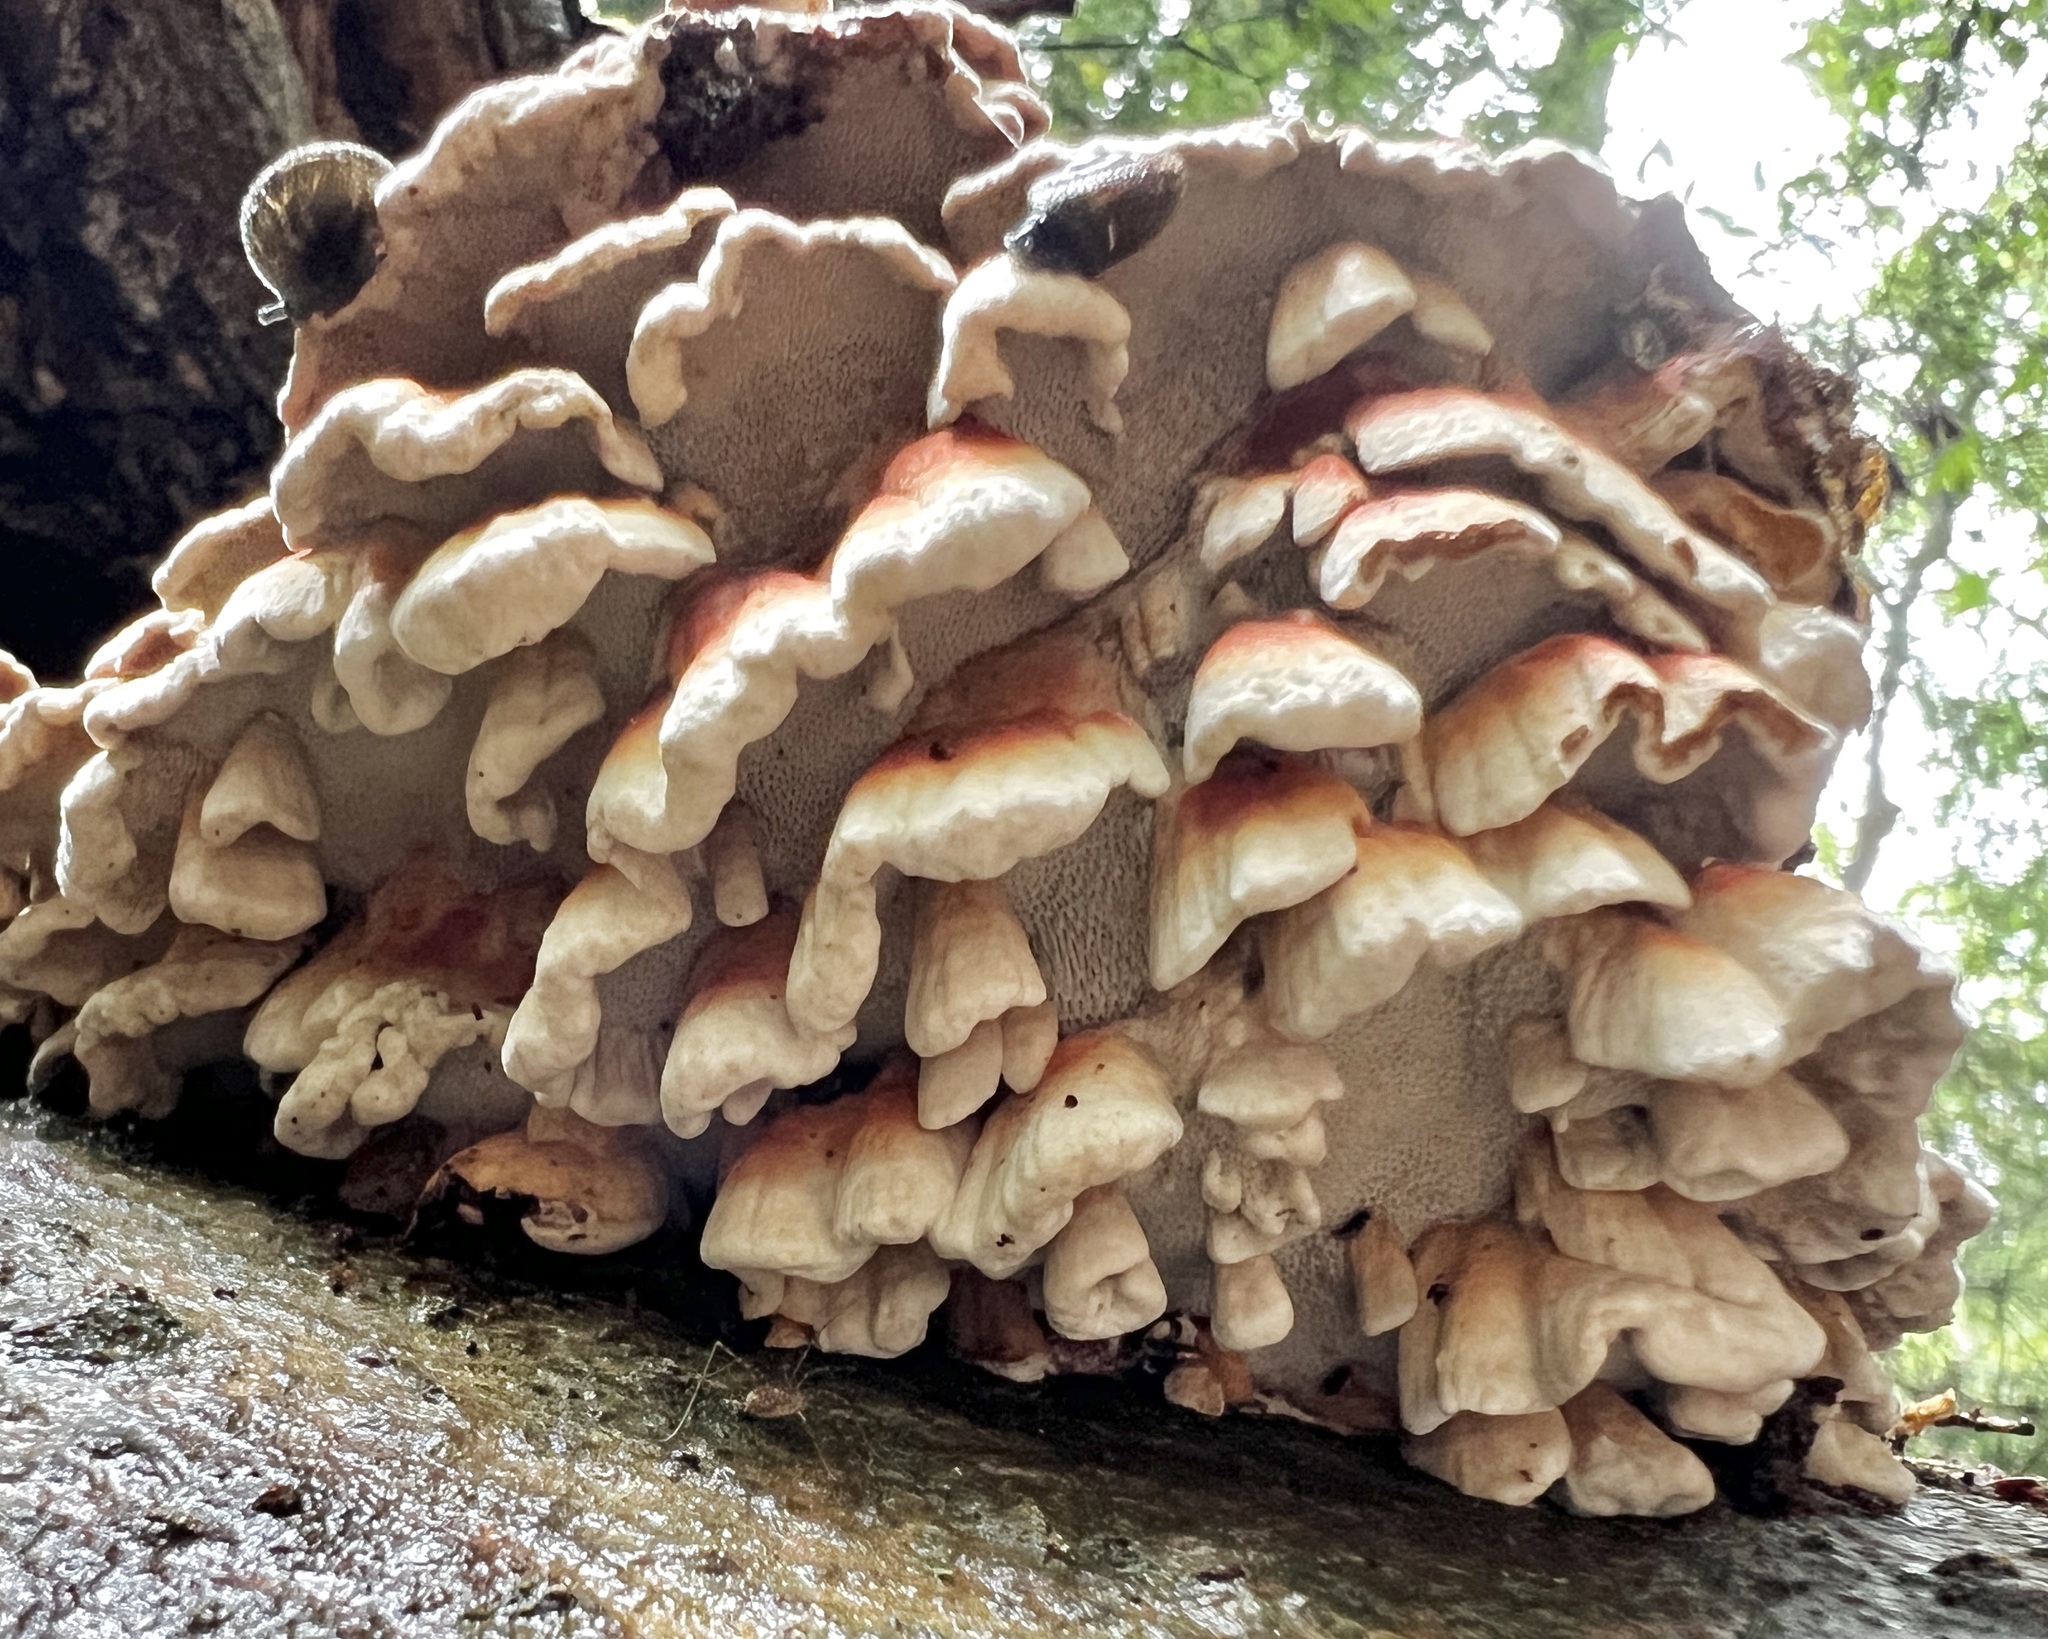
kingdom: Fungi
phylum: Basidiomycota
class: Agaricomycetes
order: Polyporales
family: Polyporaceae
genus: Globifomes
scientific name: Globifomes graveolens
